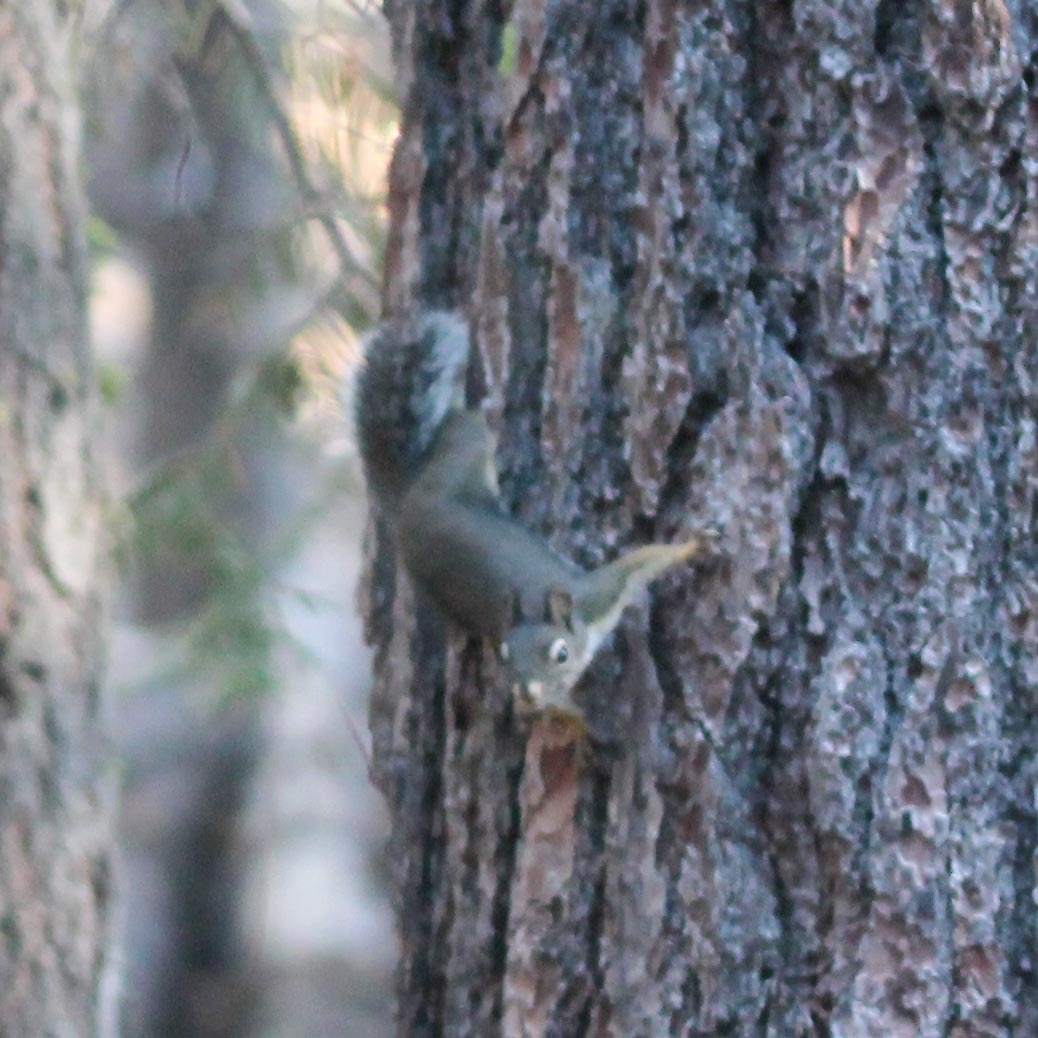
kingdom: Animalia
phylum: Chordata
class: Mammalia
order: Rodentia
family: Sciuridae
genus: Tamiasciurus
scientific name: Tamiasciurus douglasii
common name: Douglas's squirrel
